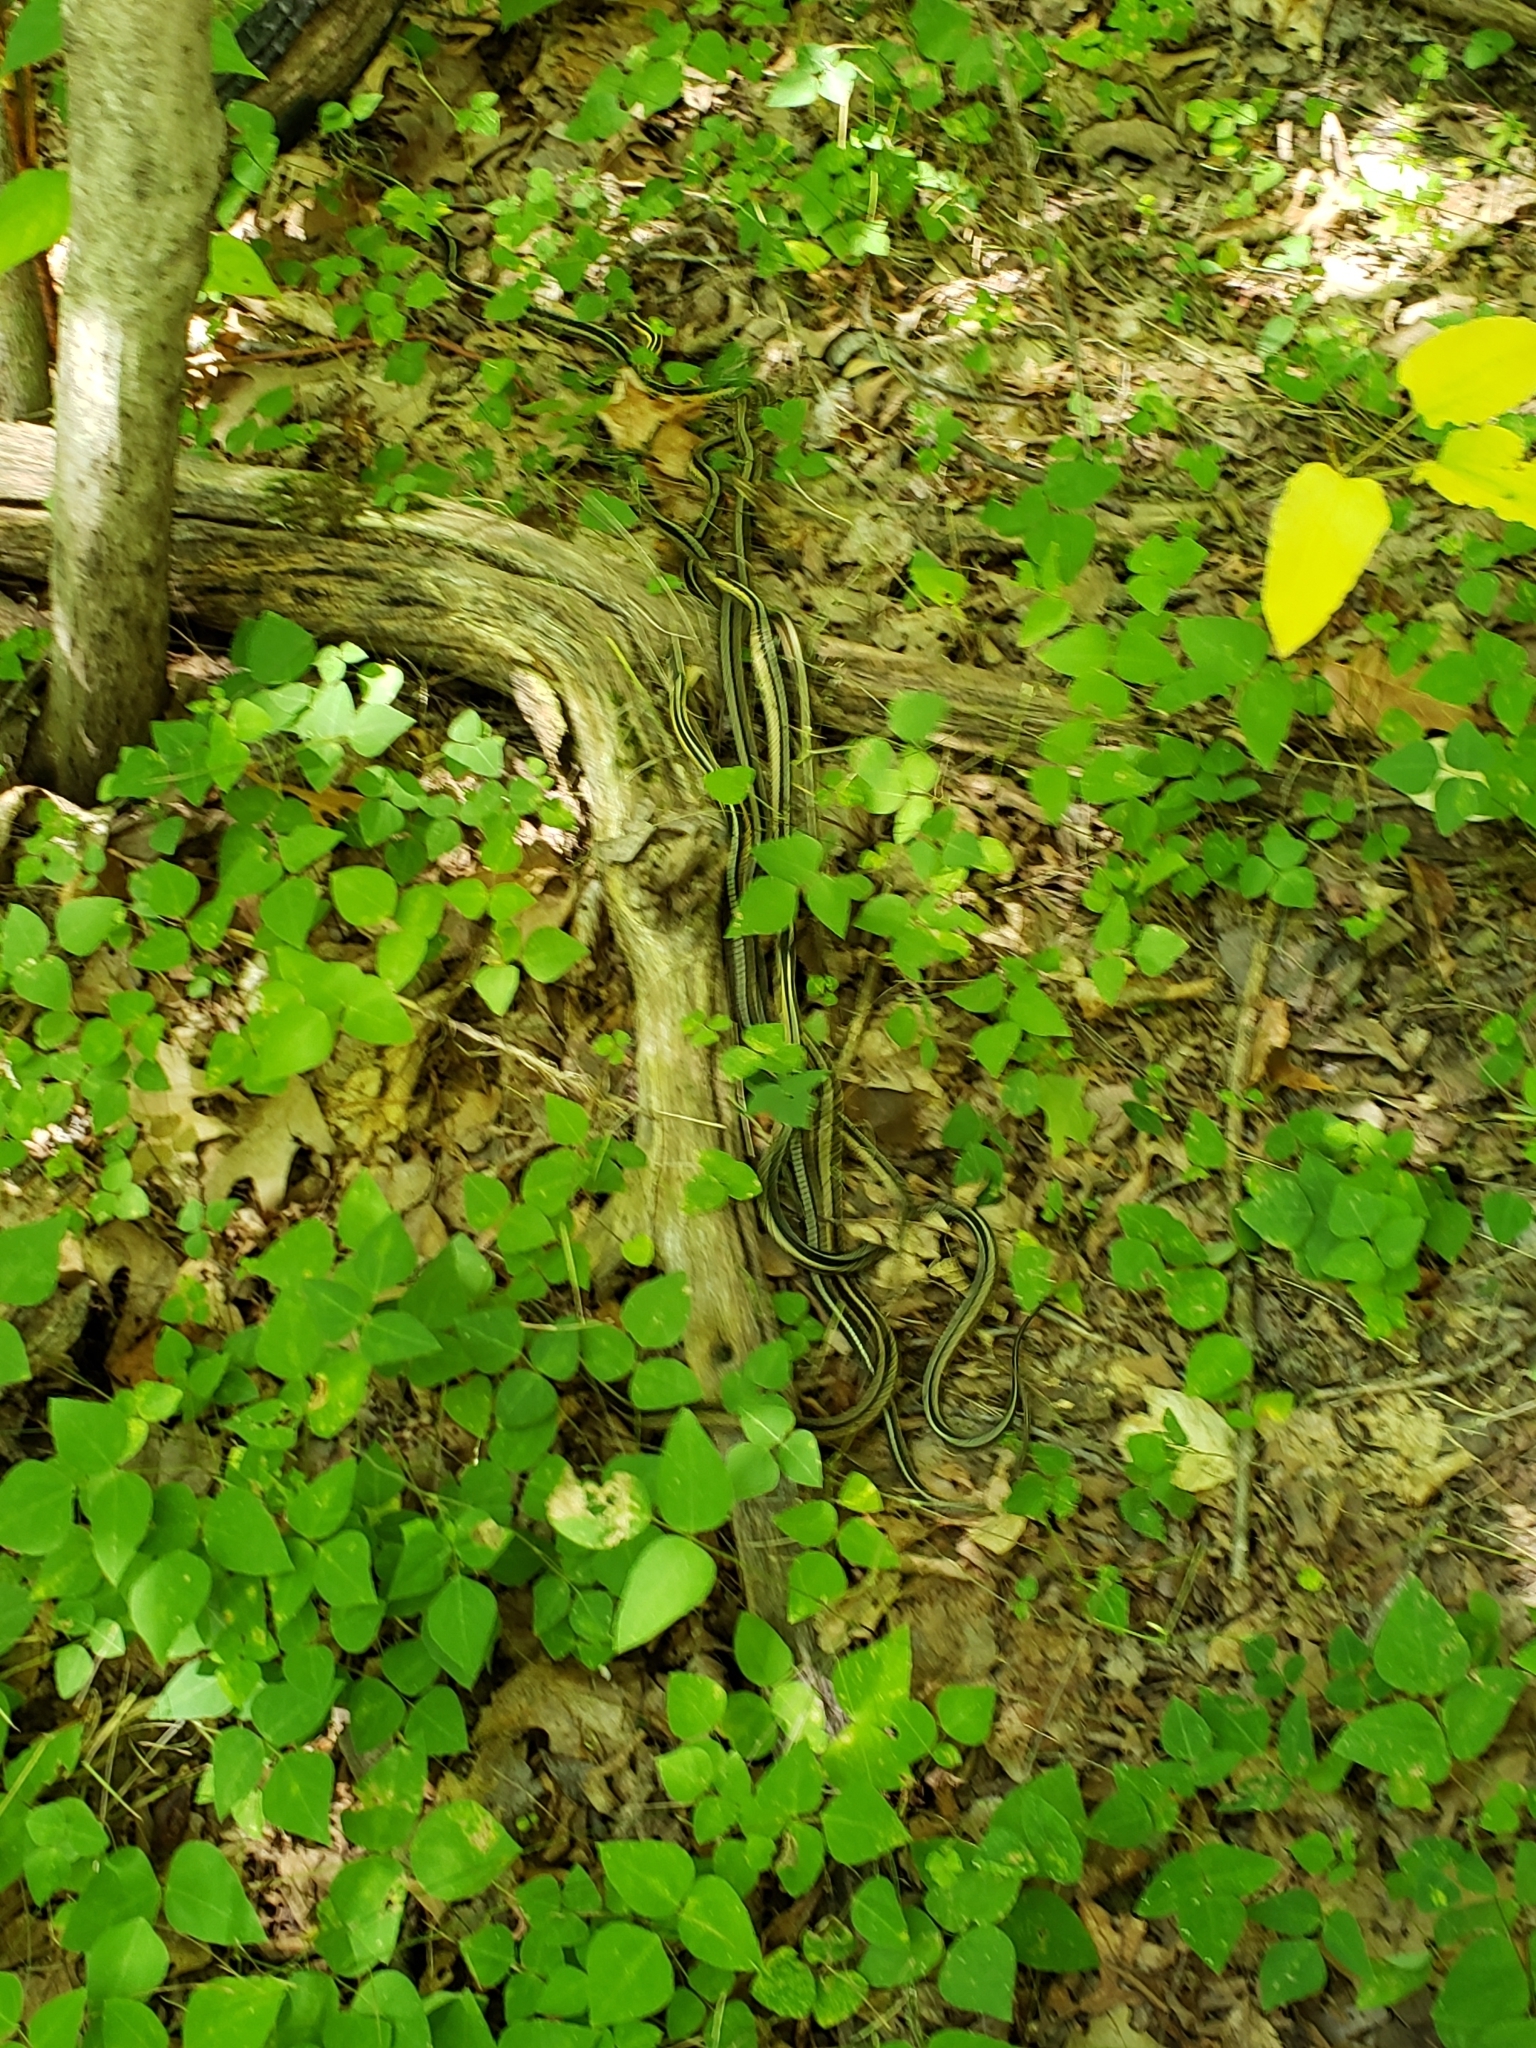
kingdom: Animalia
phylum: Chordata
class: Squamata
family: Colubridae
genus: Thamnophis
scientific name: Thamnophis sirtalis
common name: Common garter snake
